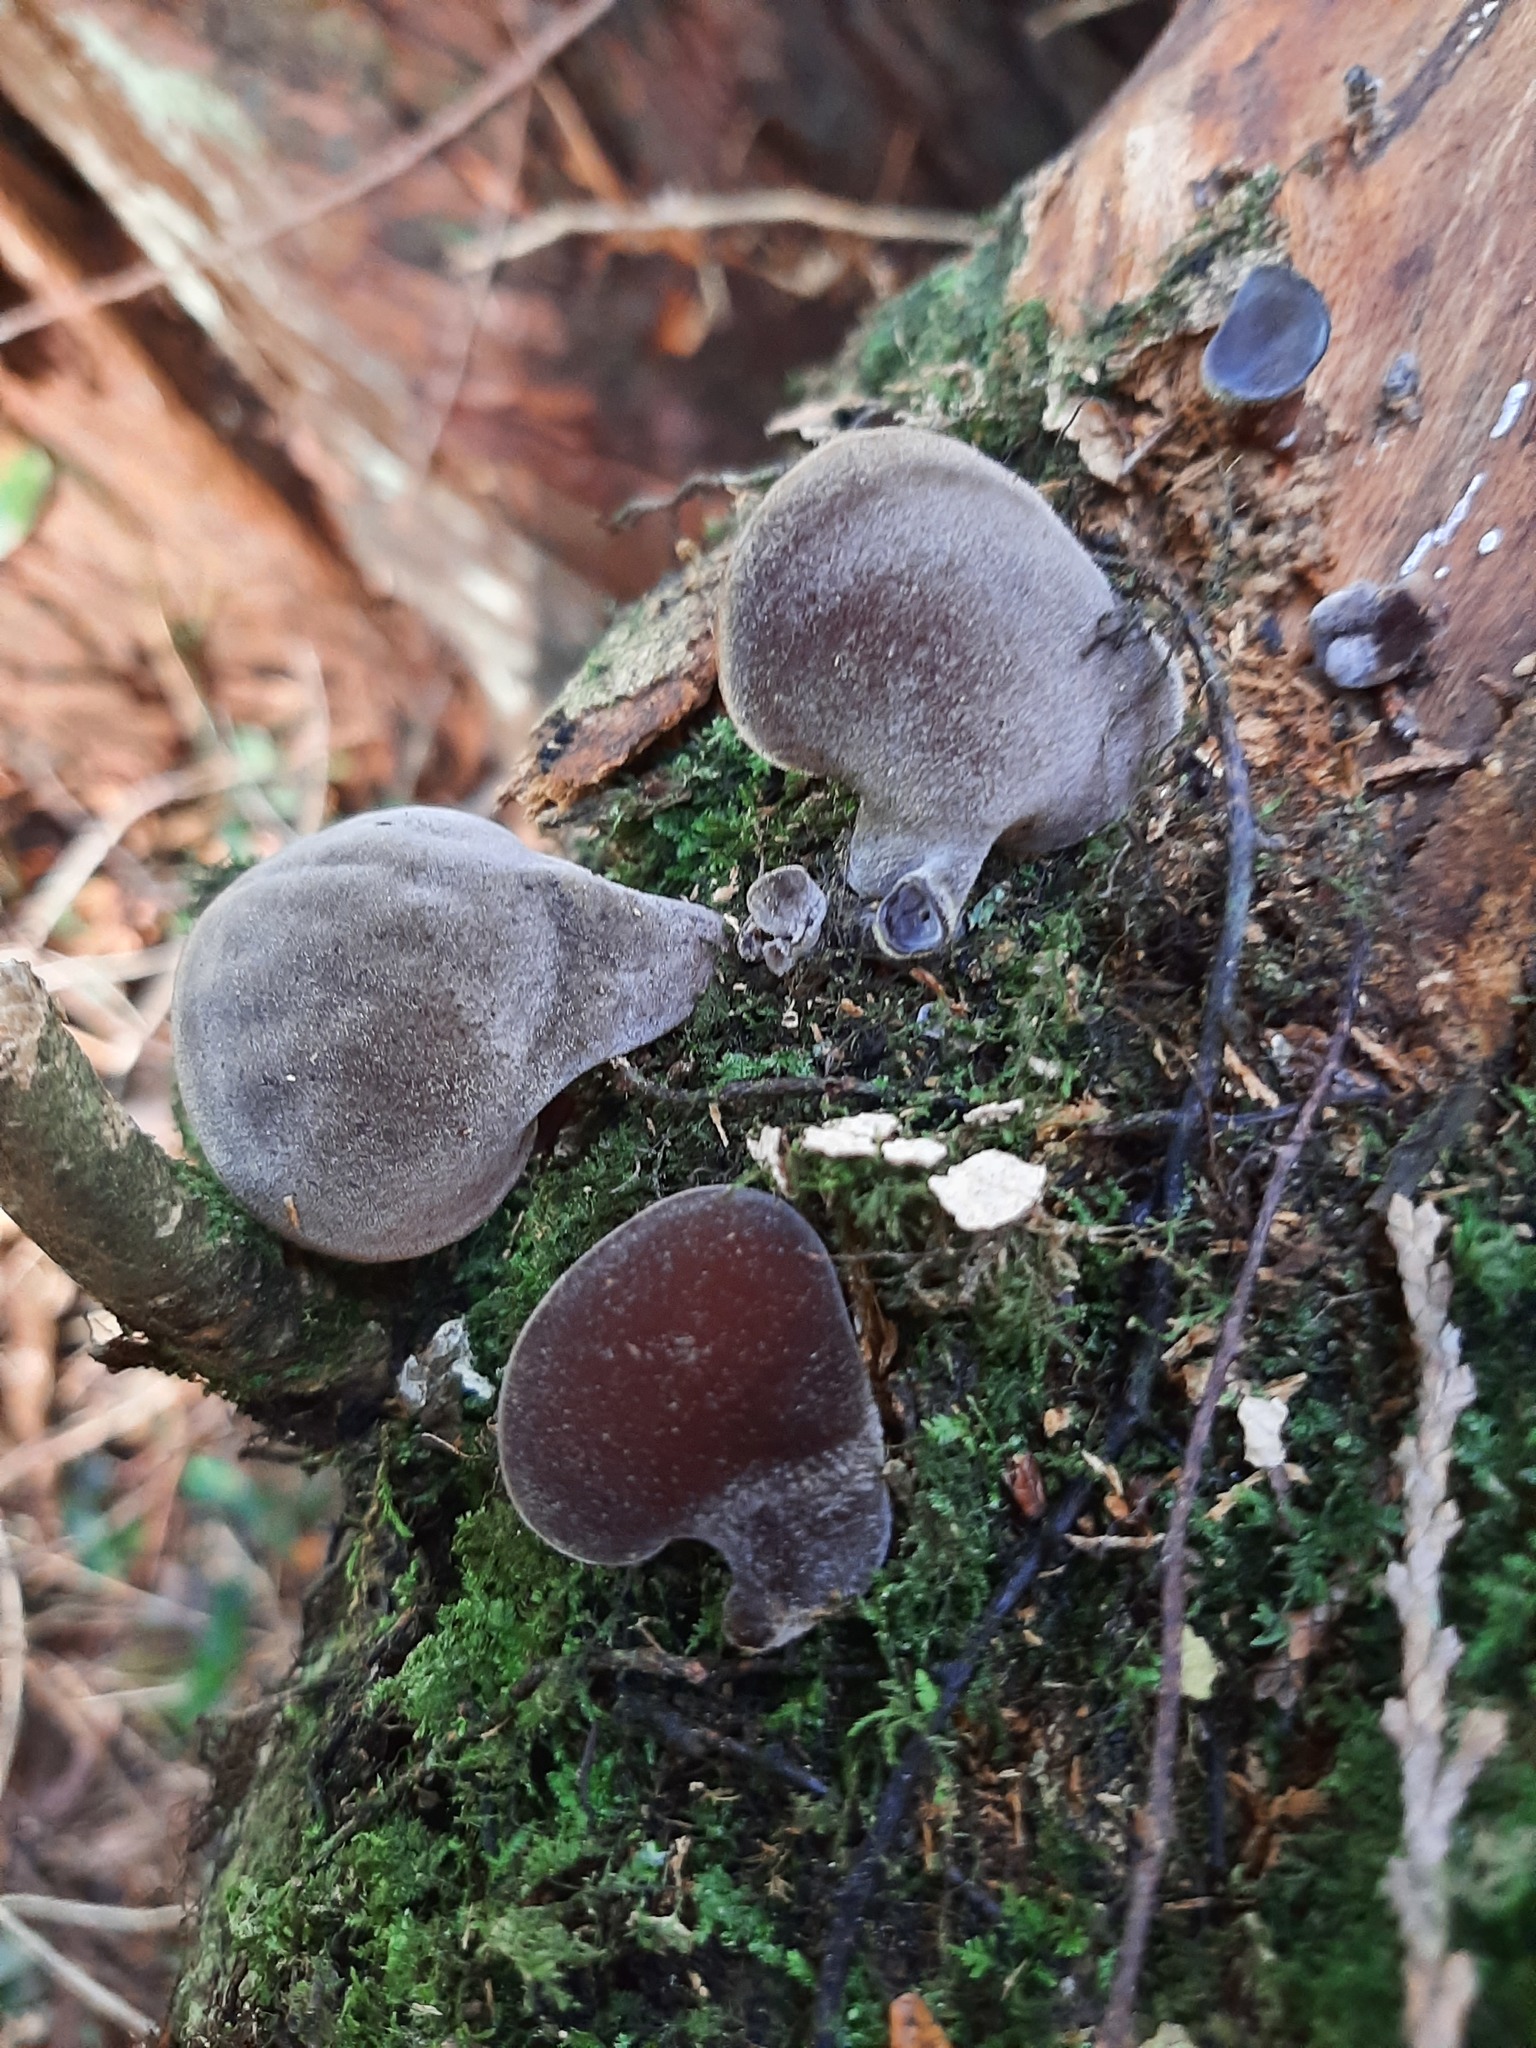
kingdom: Fungi
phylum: Basidiomycota
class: Agaricomycetes
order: Auriculariales
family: Auriculariaceae
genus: Auricularia
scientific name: Auricularia cornea
